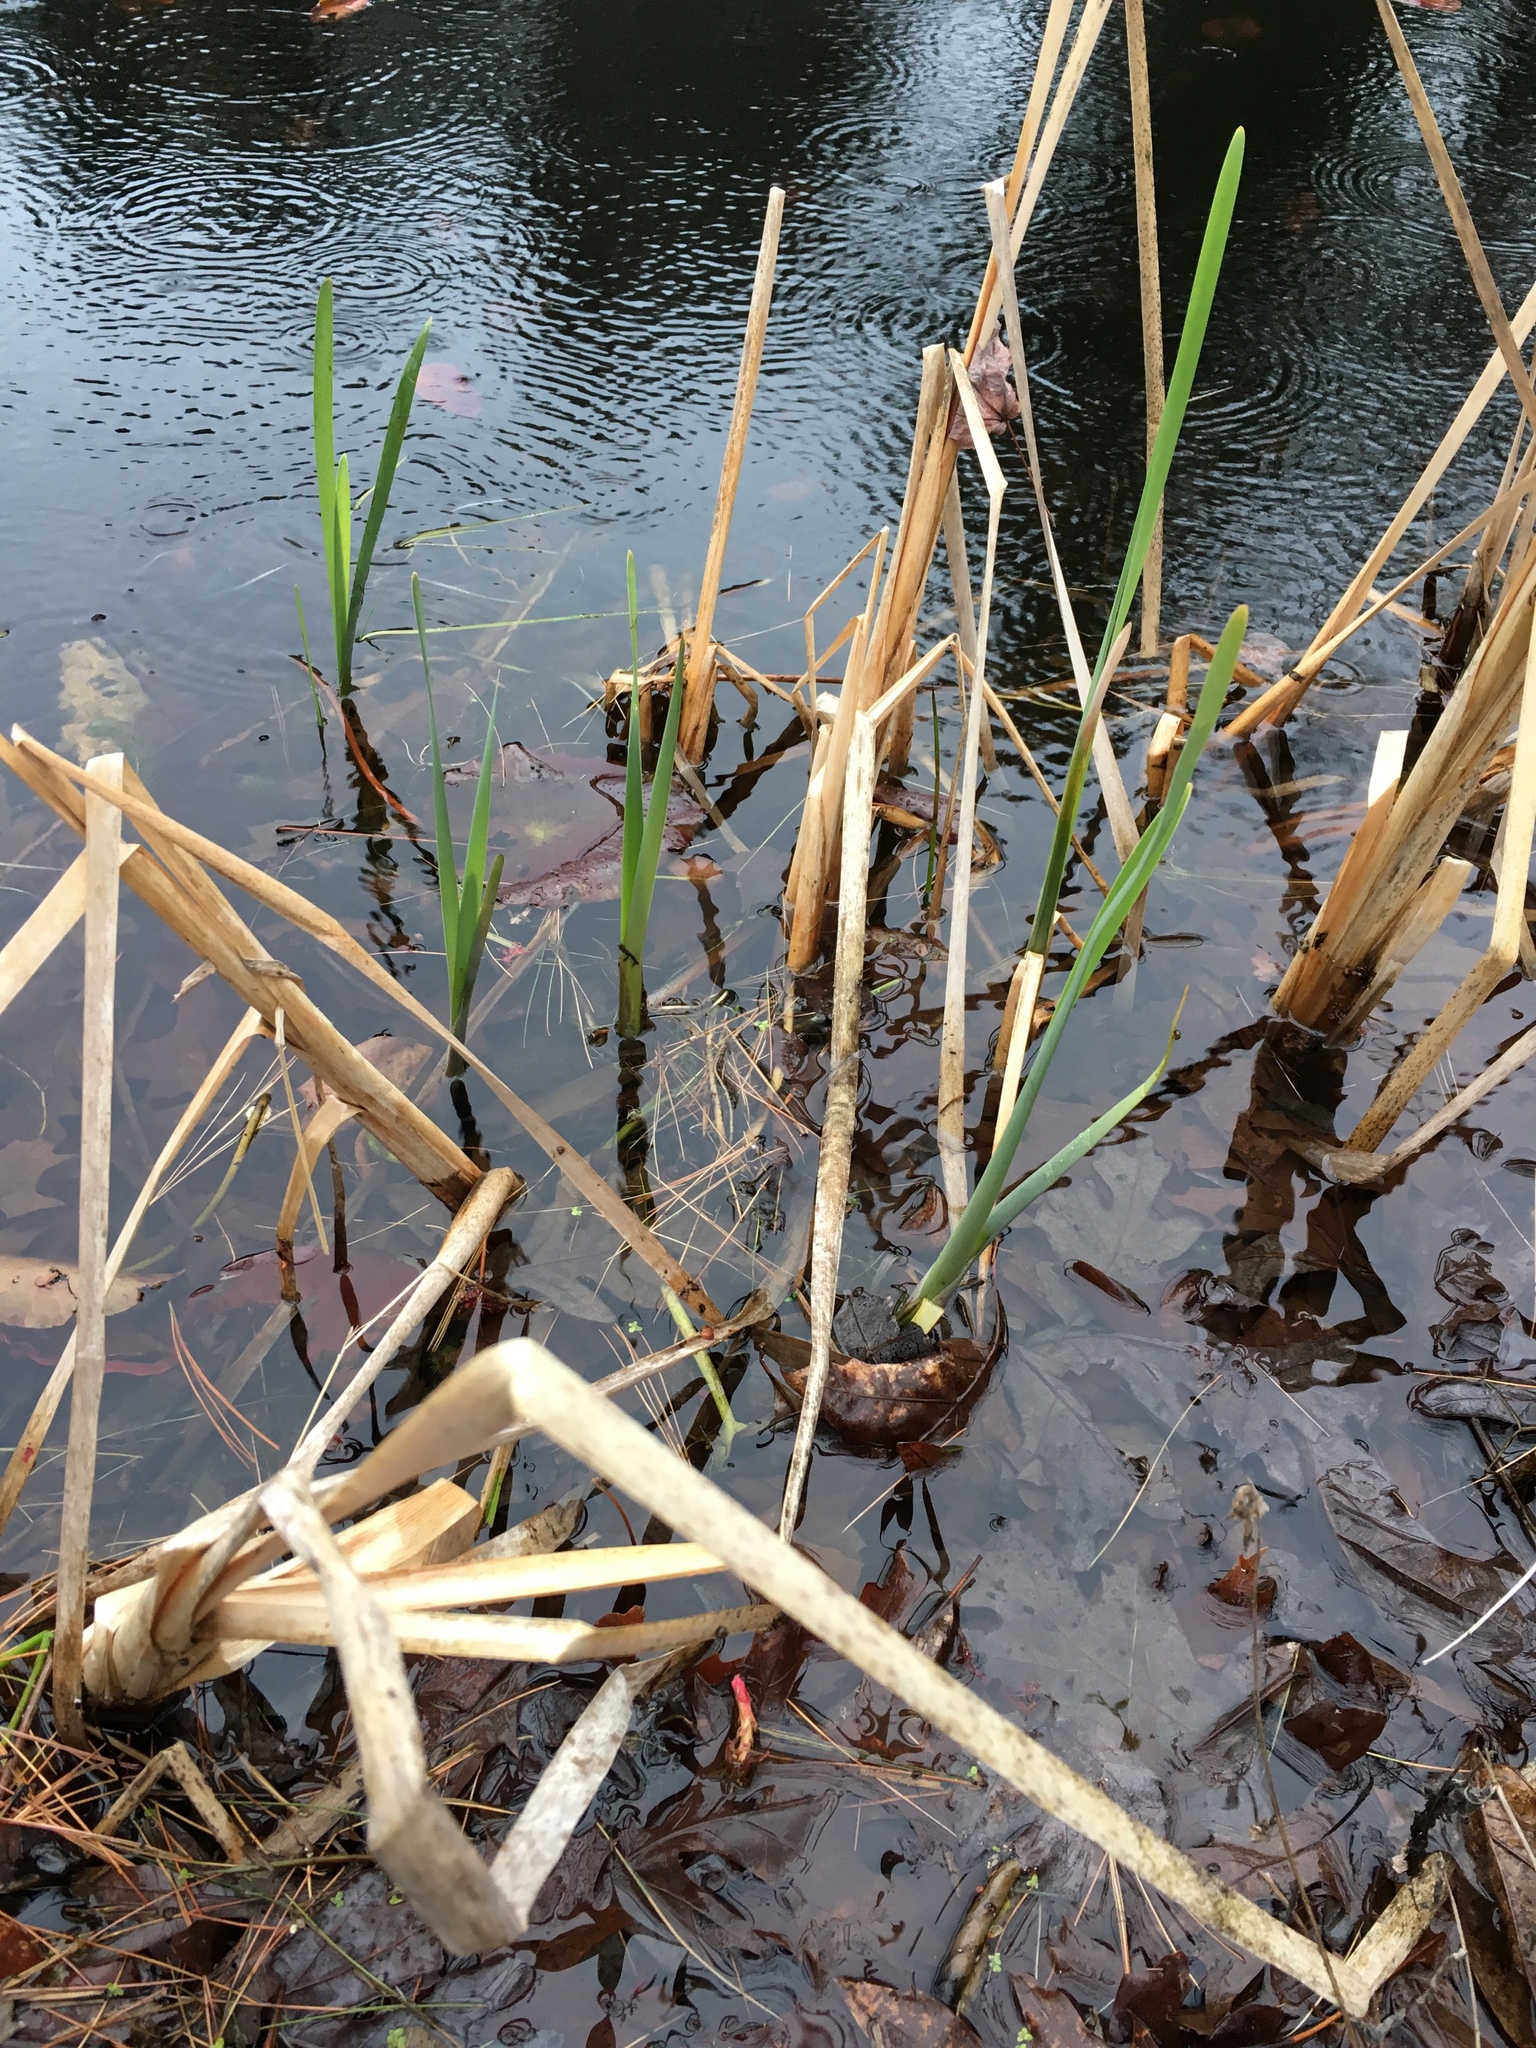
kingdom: Plantae
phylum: Tracheophyta
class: Liliopsida
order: Poales
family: Typhaceae
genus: Typha
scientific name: Typha latifolia
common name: Broadleaf cattail
